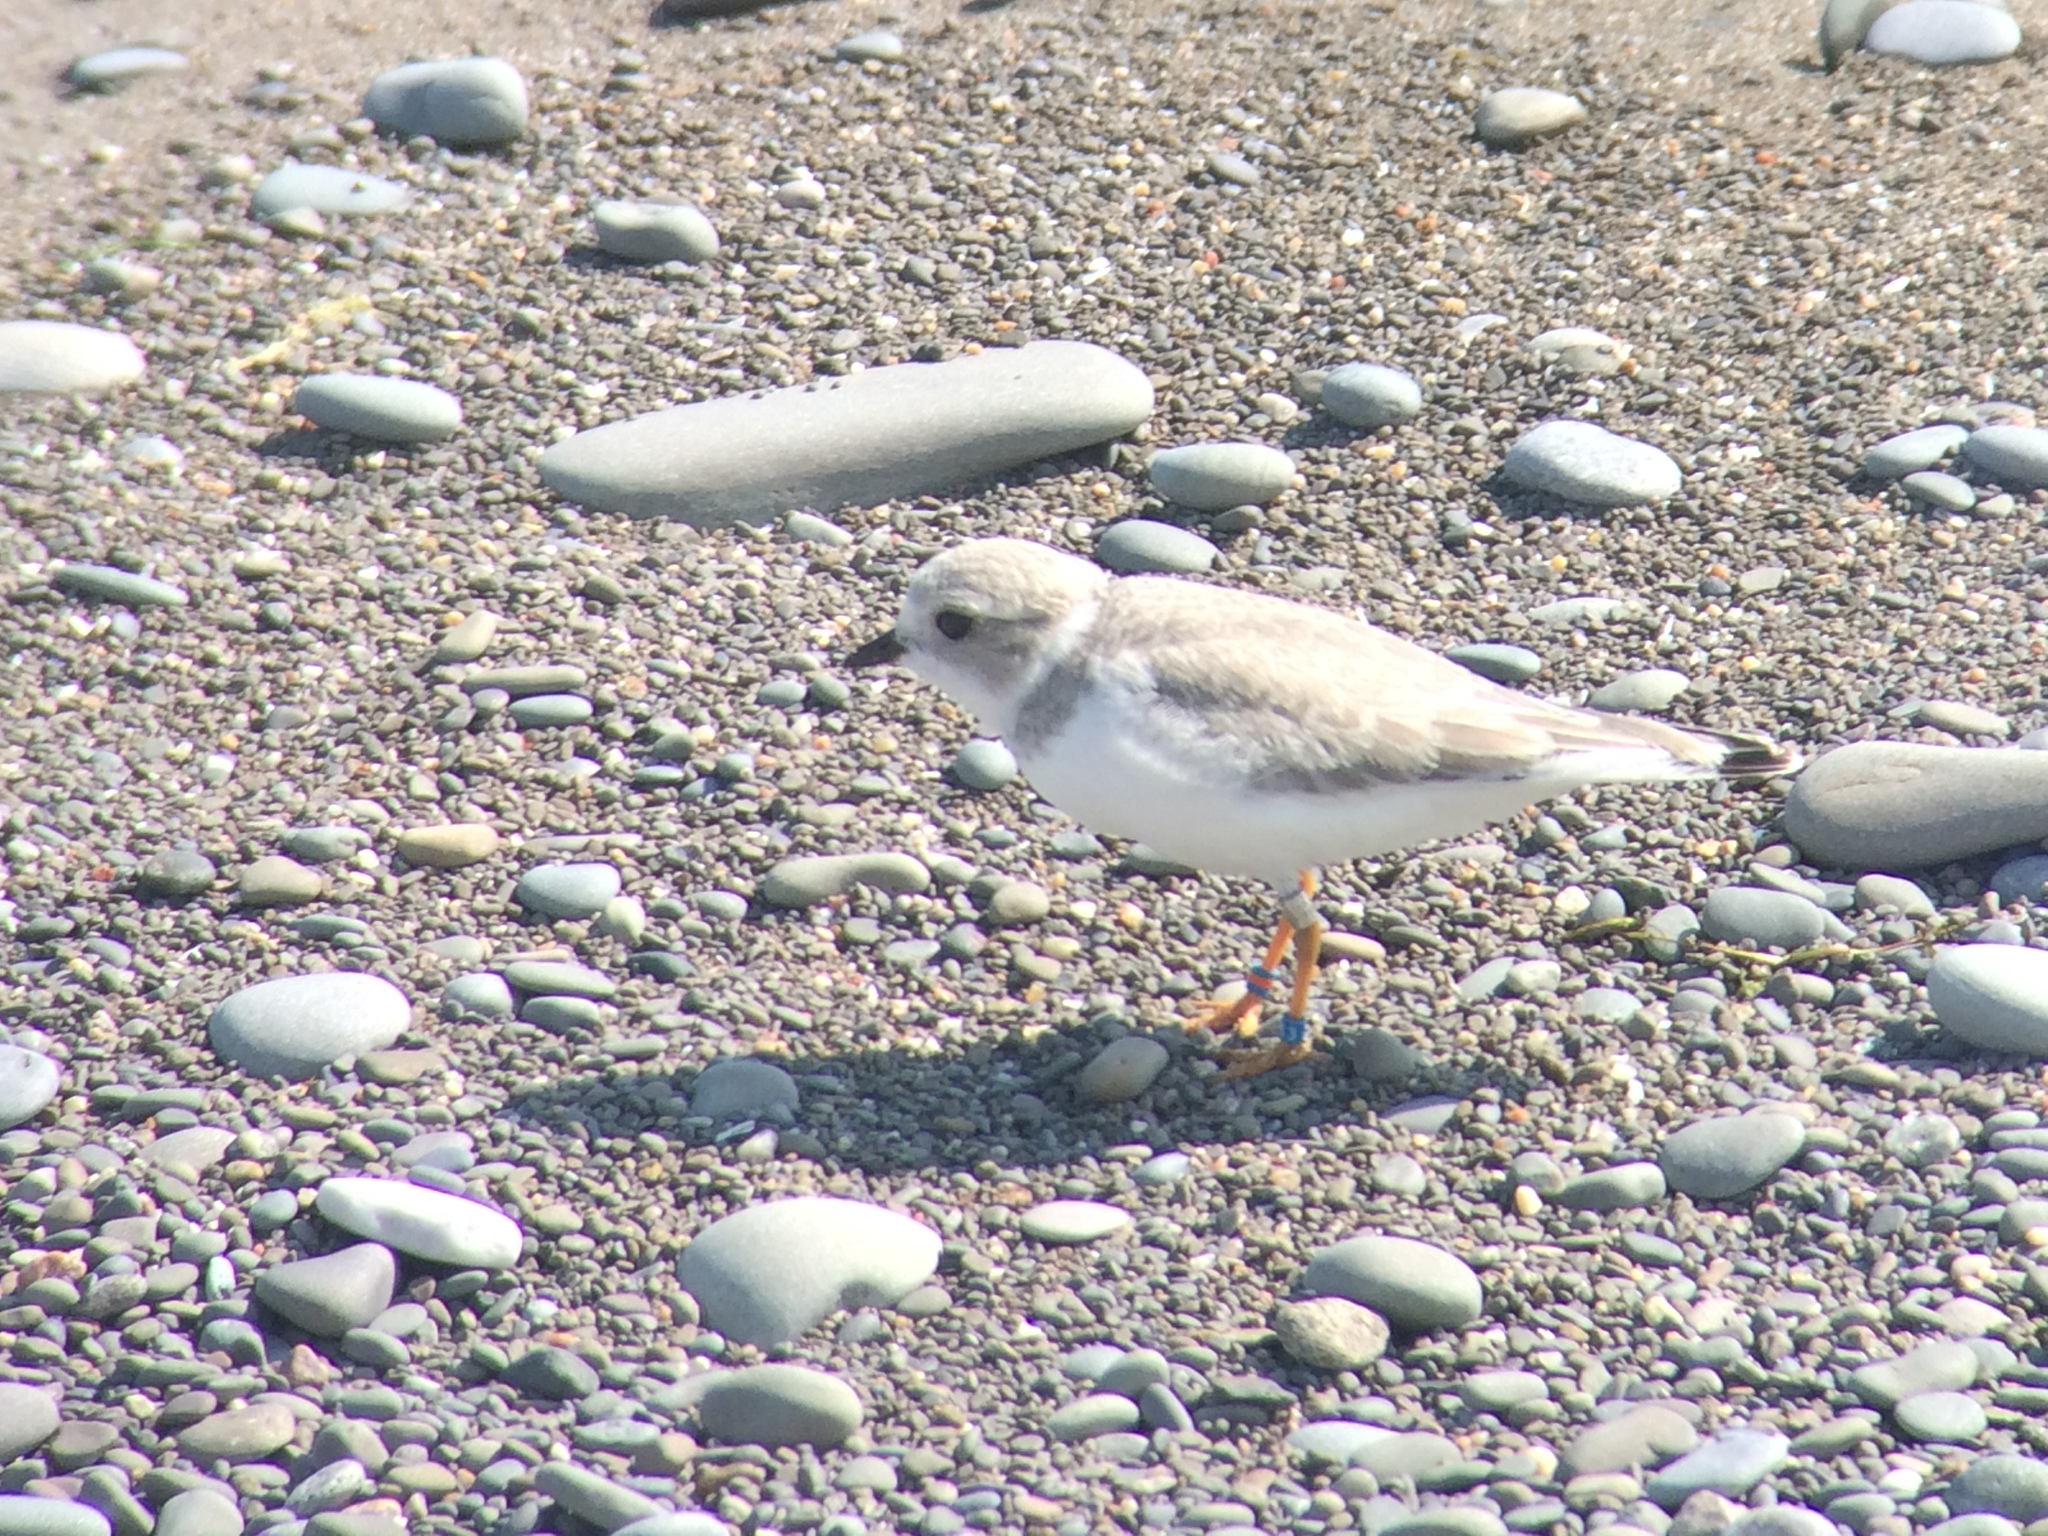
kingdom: Animalia
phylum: Chordata
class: Aves
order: Charadriiformes
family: Charadriidae
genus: Charadrius
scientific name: Charadrius melodus
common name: Piping plover
